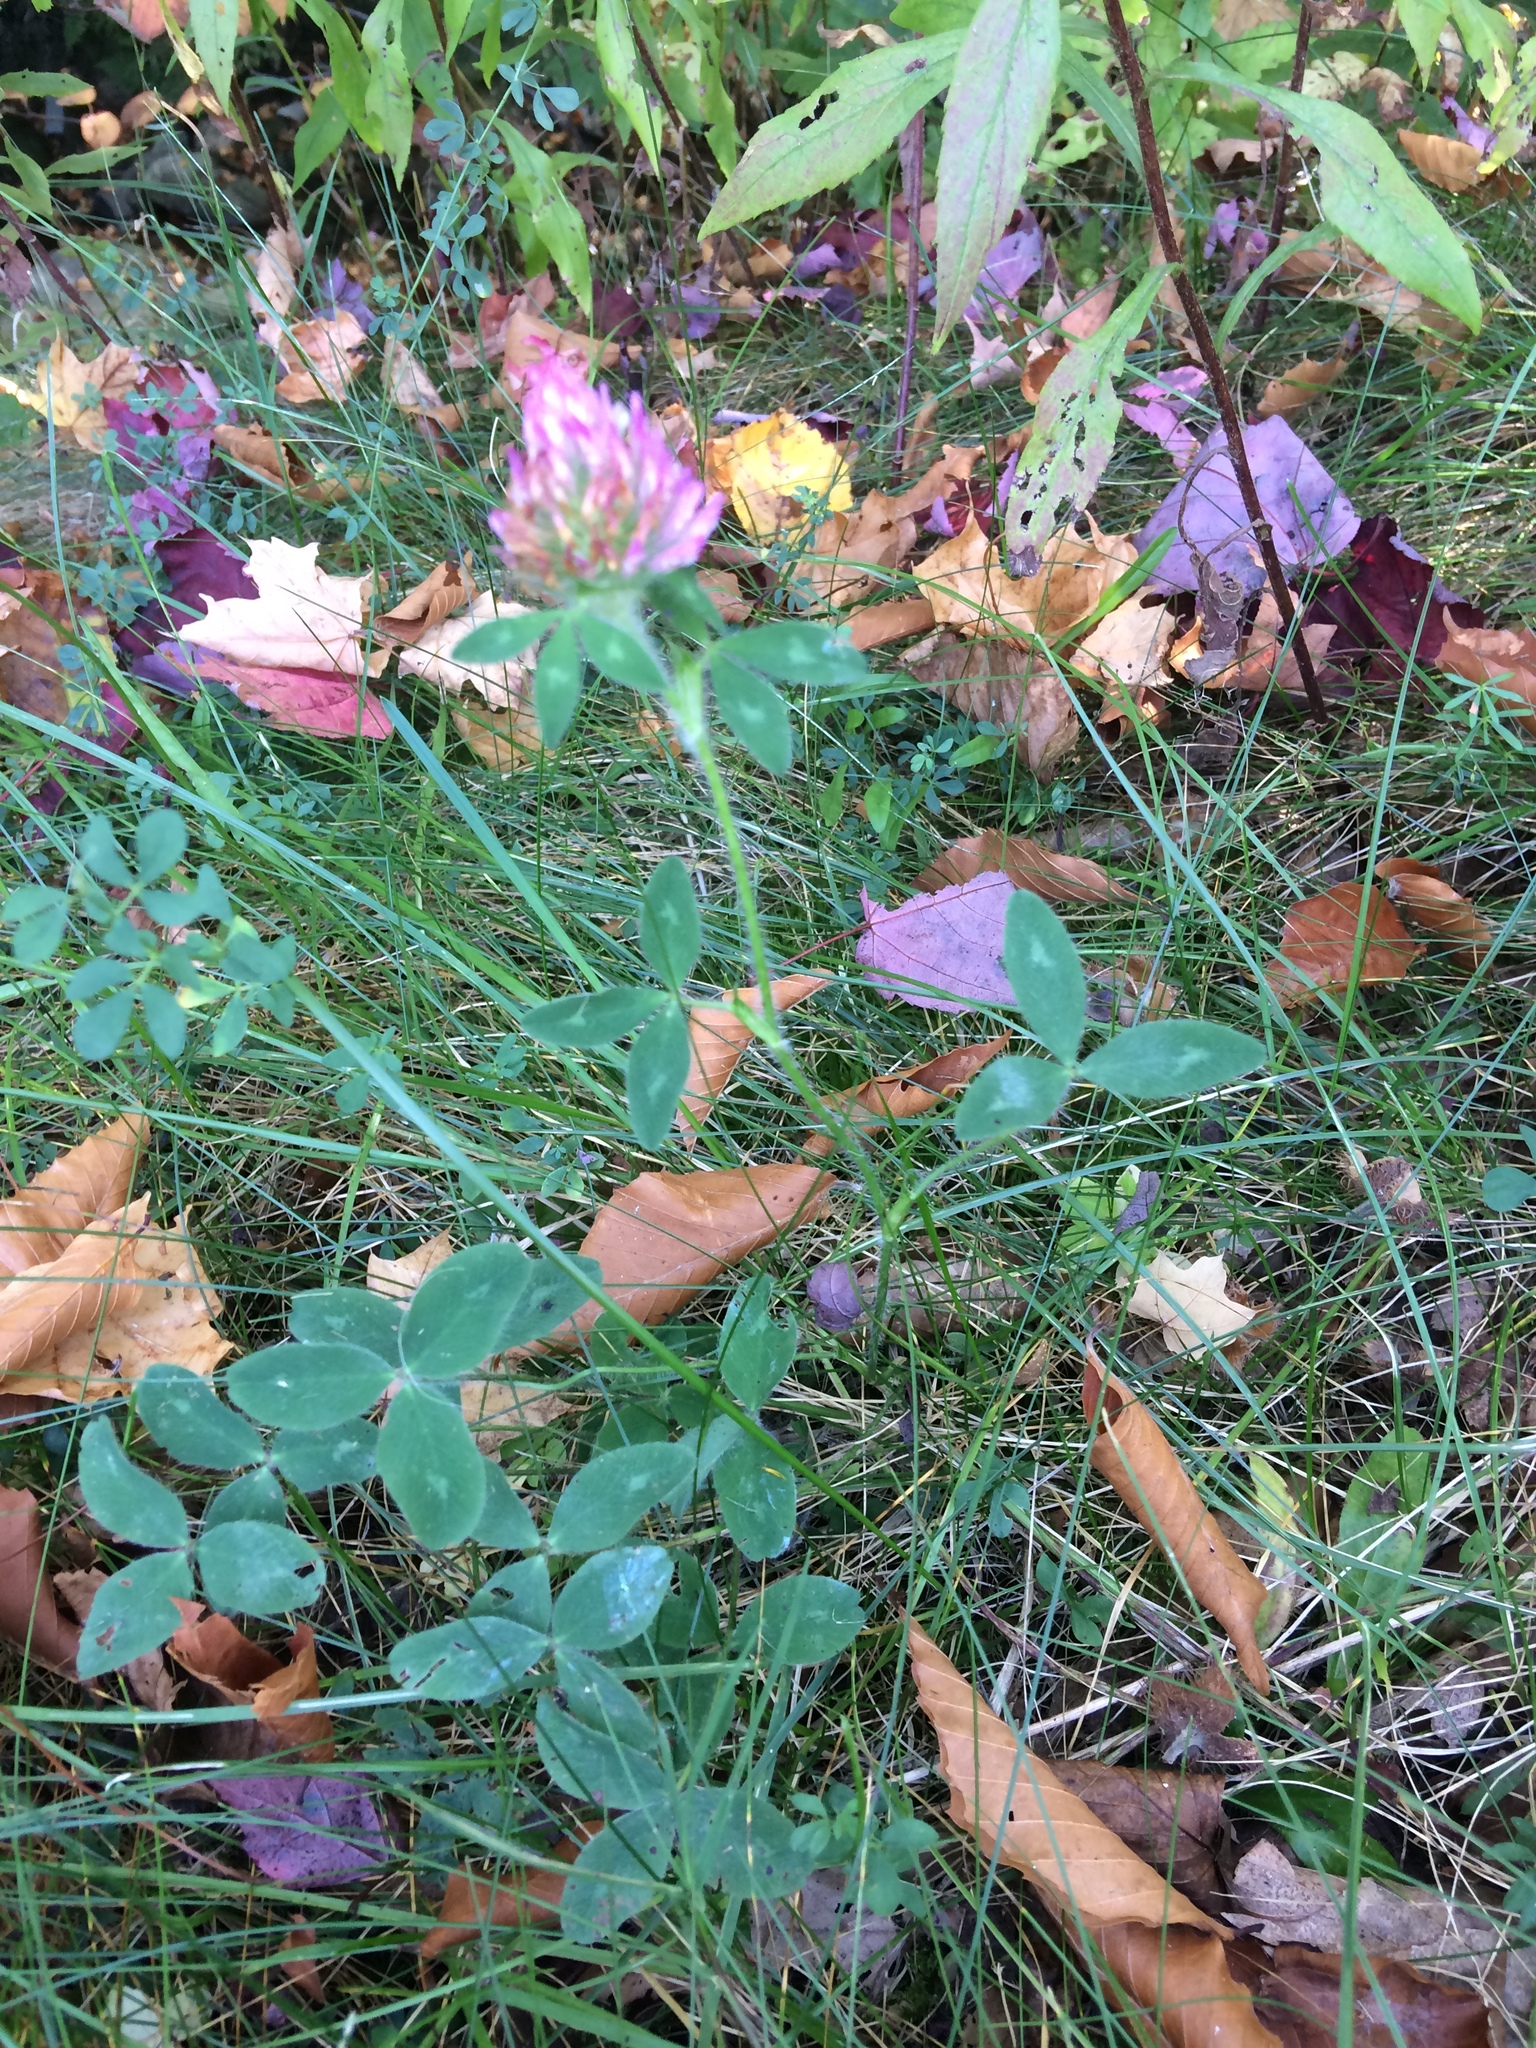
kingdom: Plantae
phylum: Tracheophyta
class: Magnoliopsida
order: Fabales
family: Fabaceae
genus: Trifolium
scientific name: Trifolium pratense
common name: Red clover
